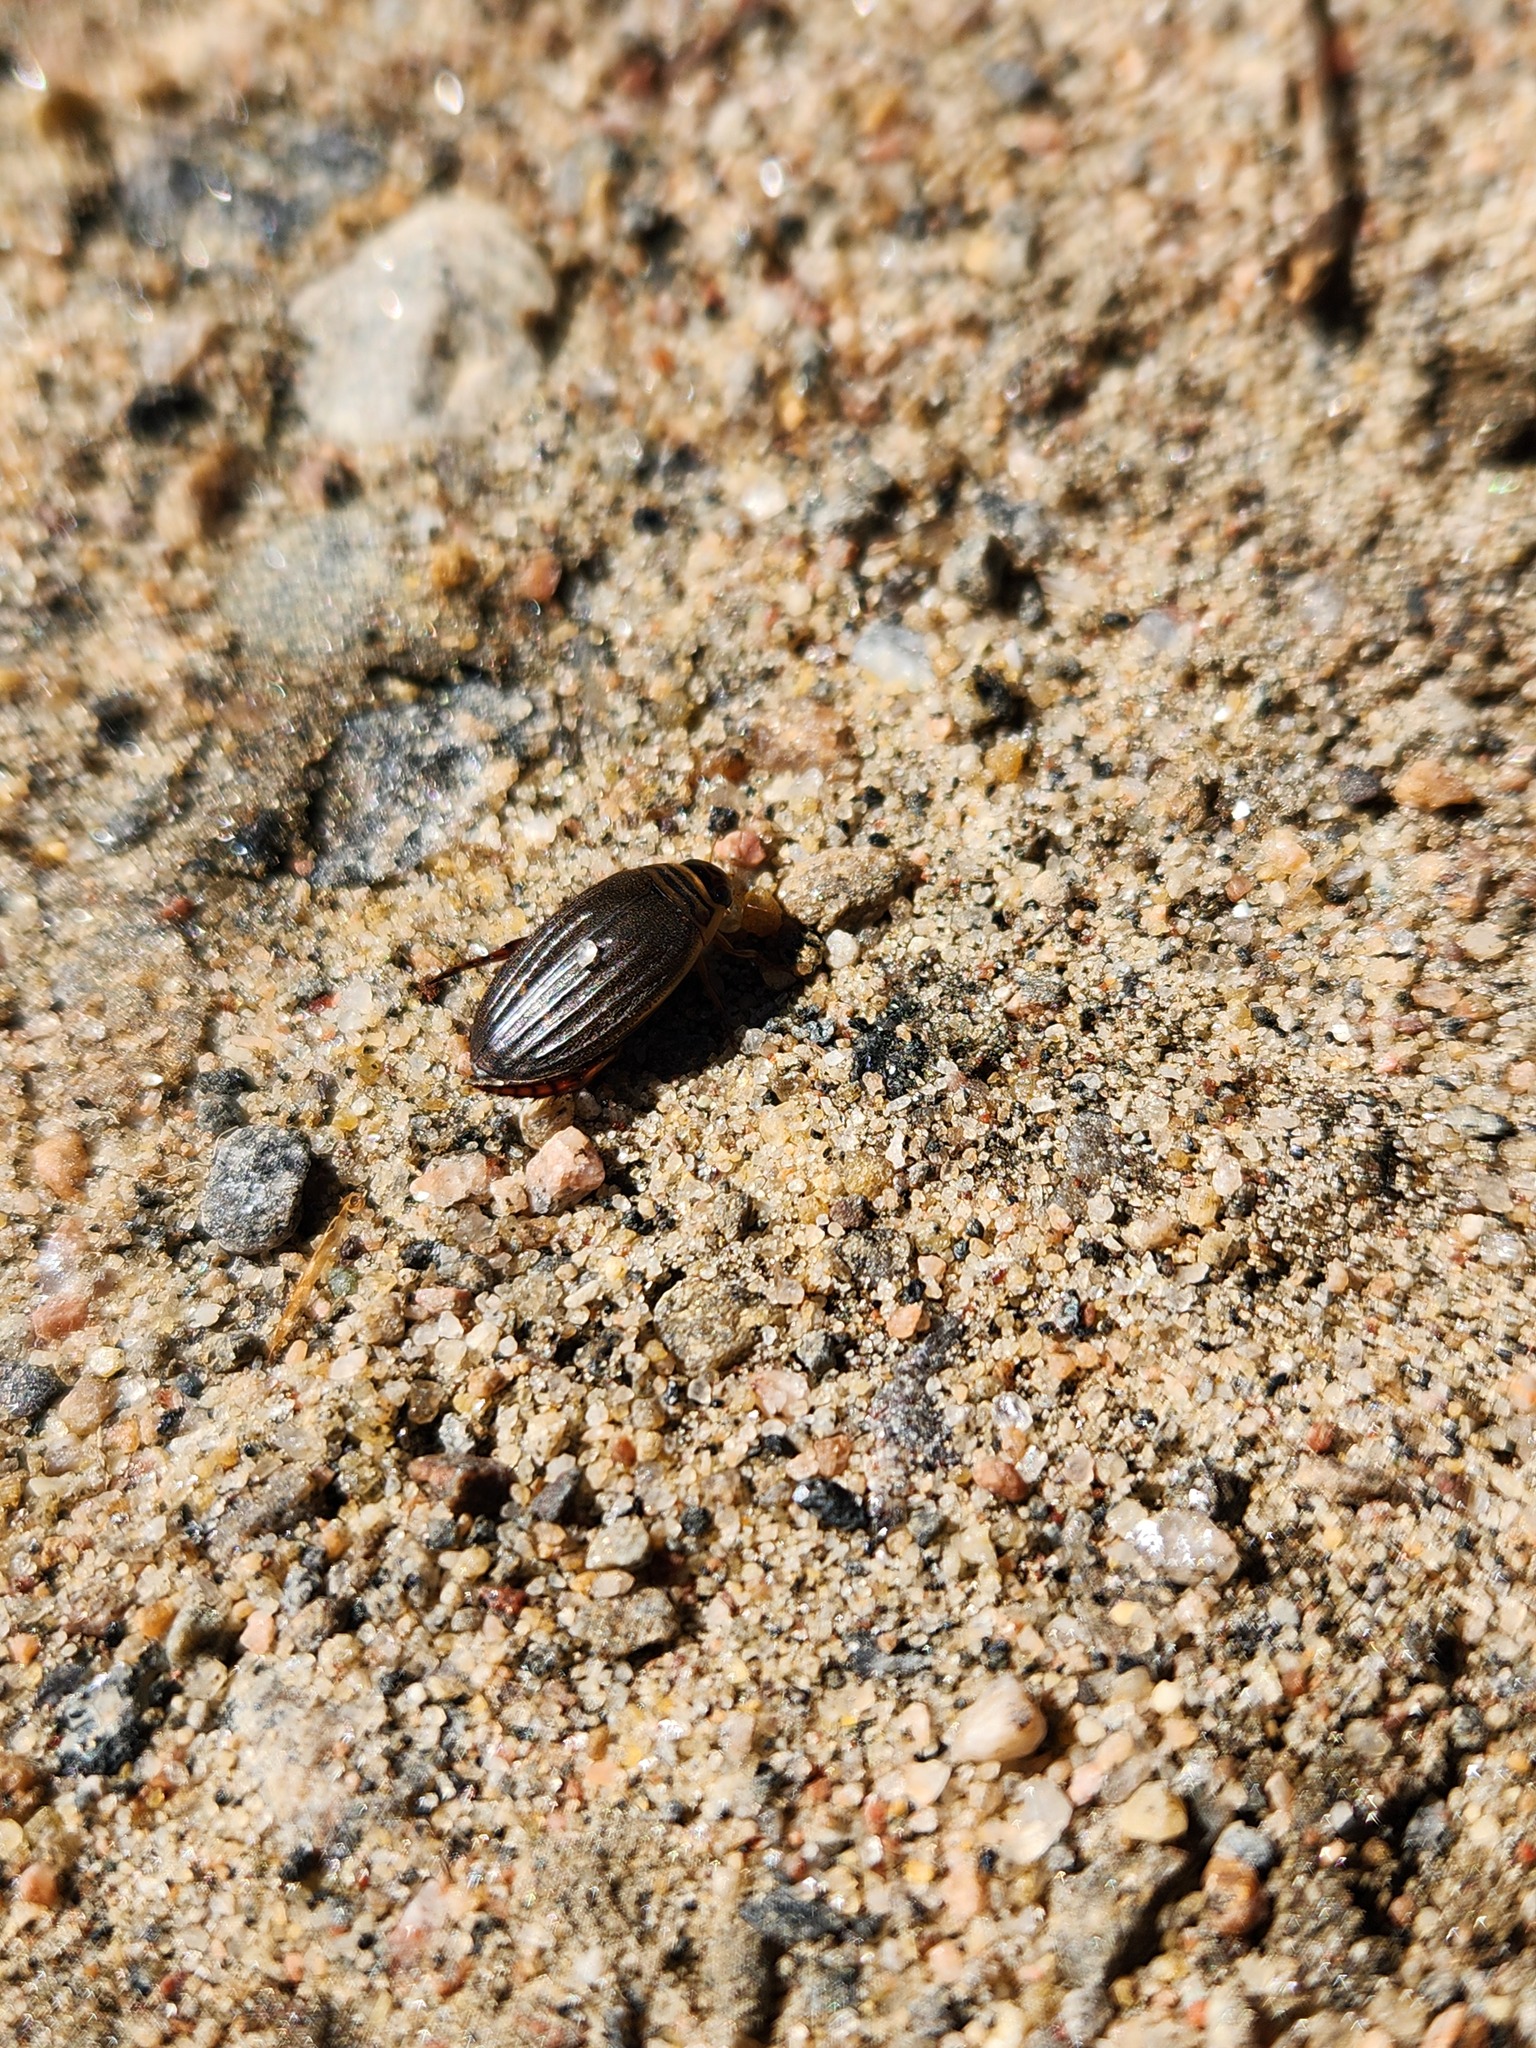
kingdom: Animalia
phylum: Arthropoda
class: Insecta
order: Coleoptera
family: Dytiscidae
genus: Acilius
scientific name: Acilius semisulcatus
